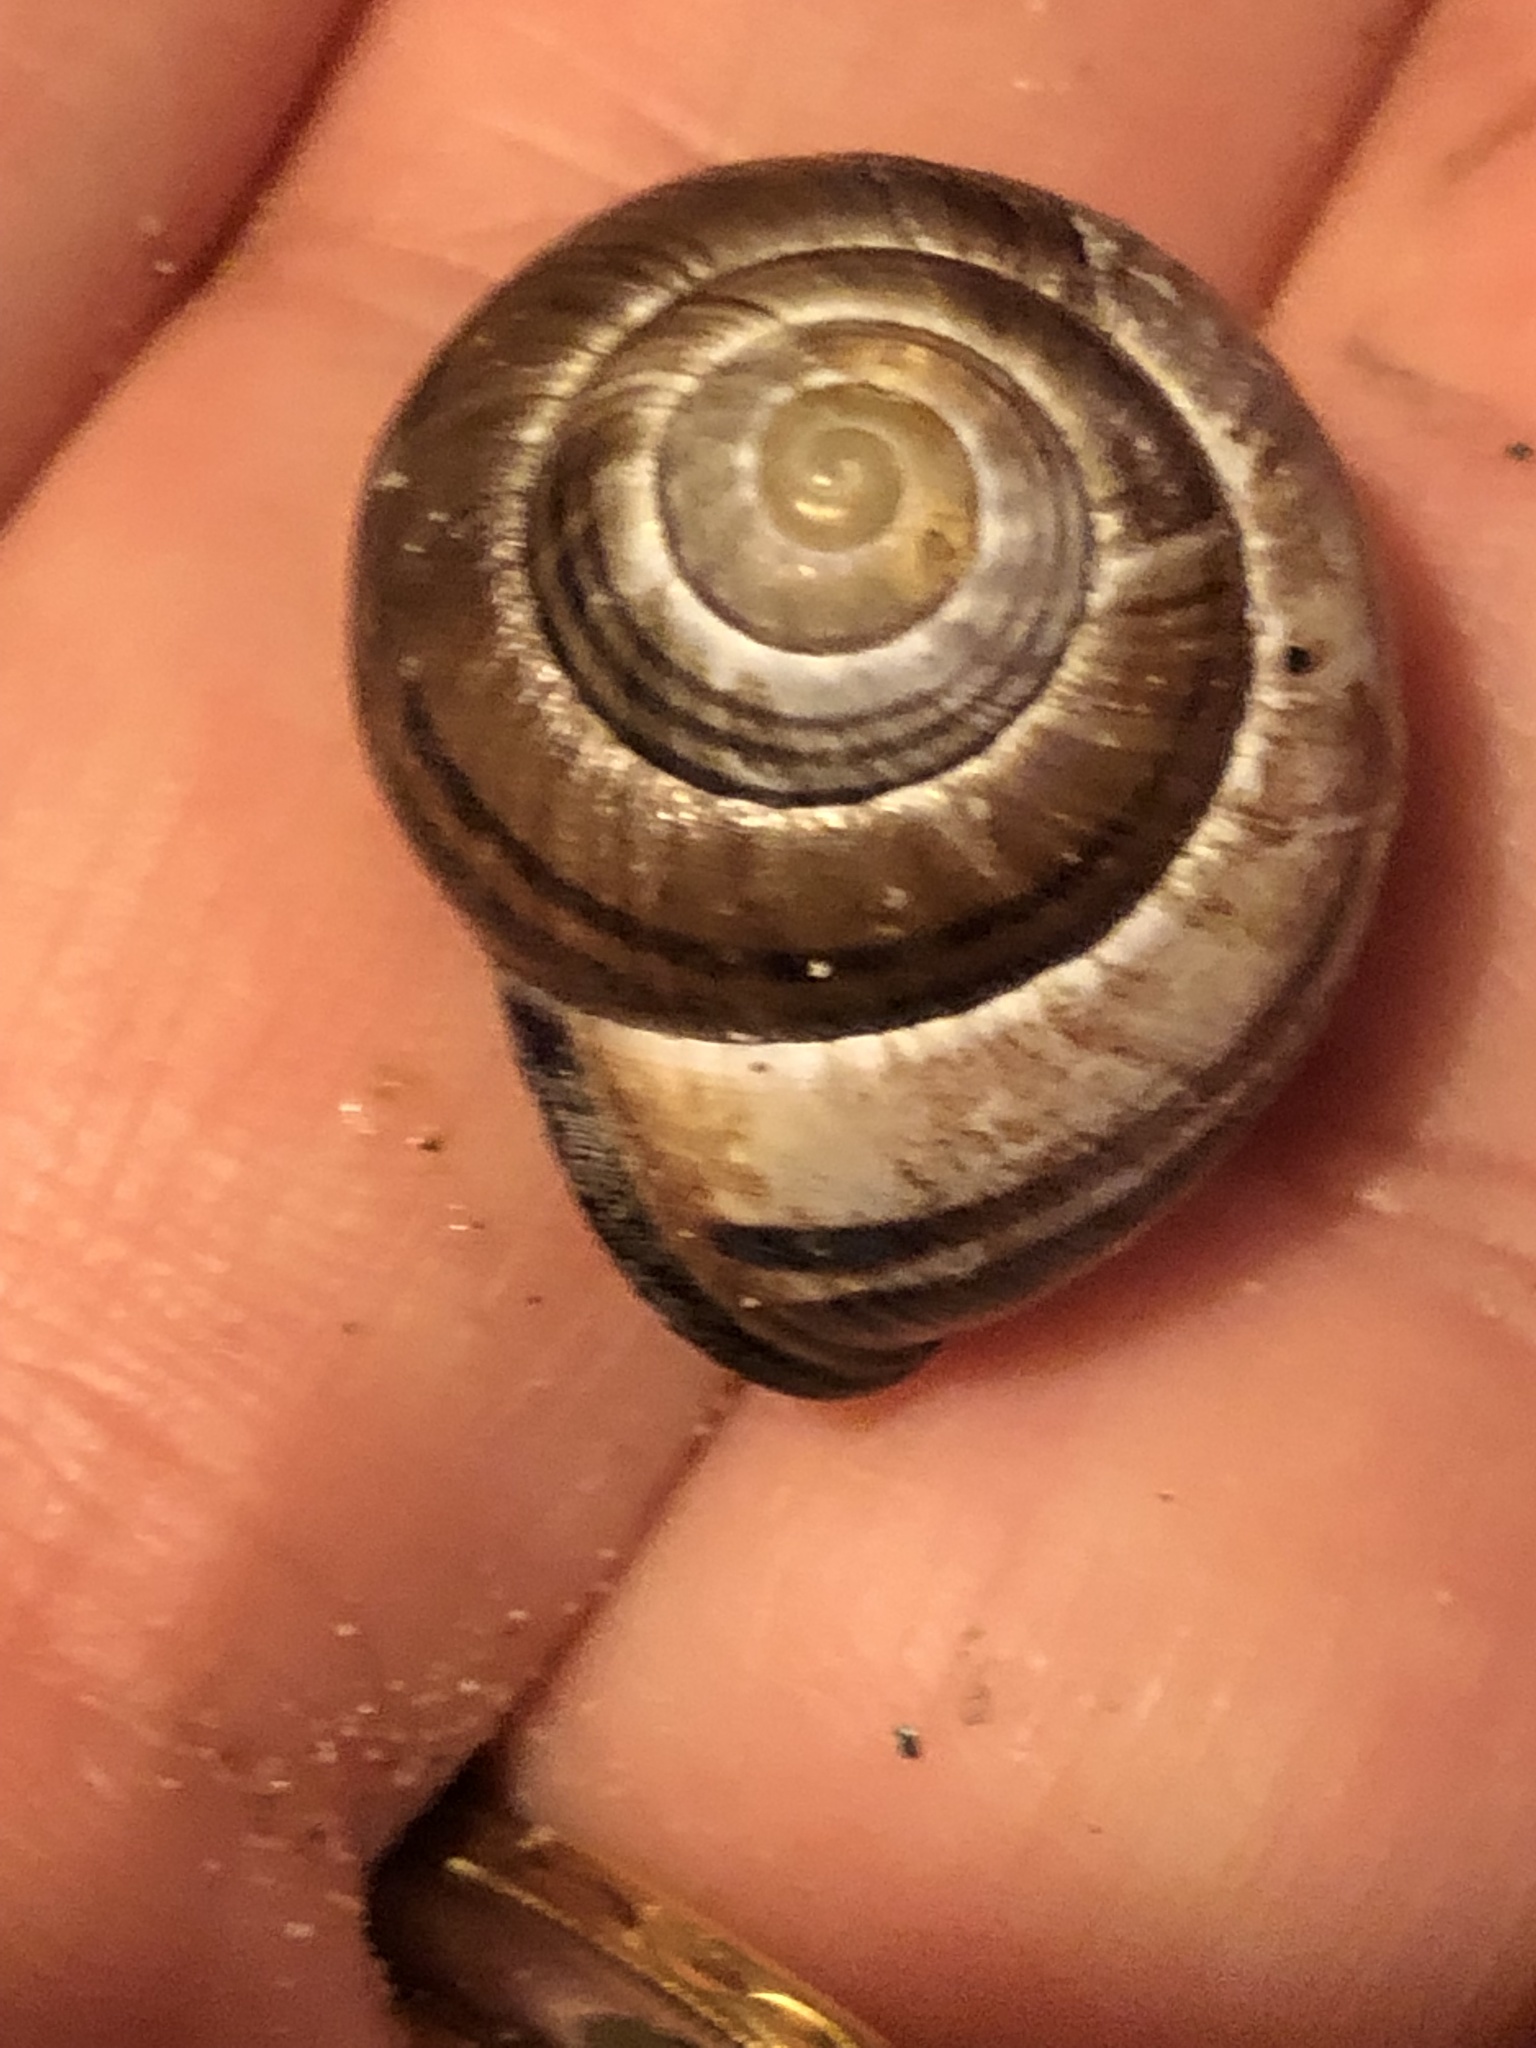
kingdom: Animalia
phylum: Mollusca
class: Gastropoda
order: Stylommatophora
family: Helicidae
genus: Cepaea
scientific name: Cepaea nemoralis
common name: Grovesnail
